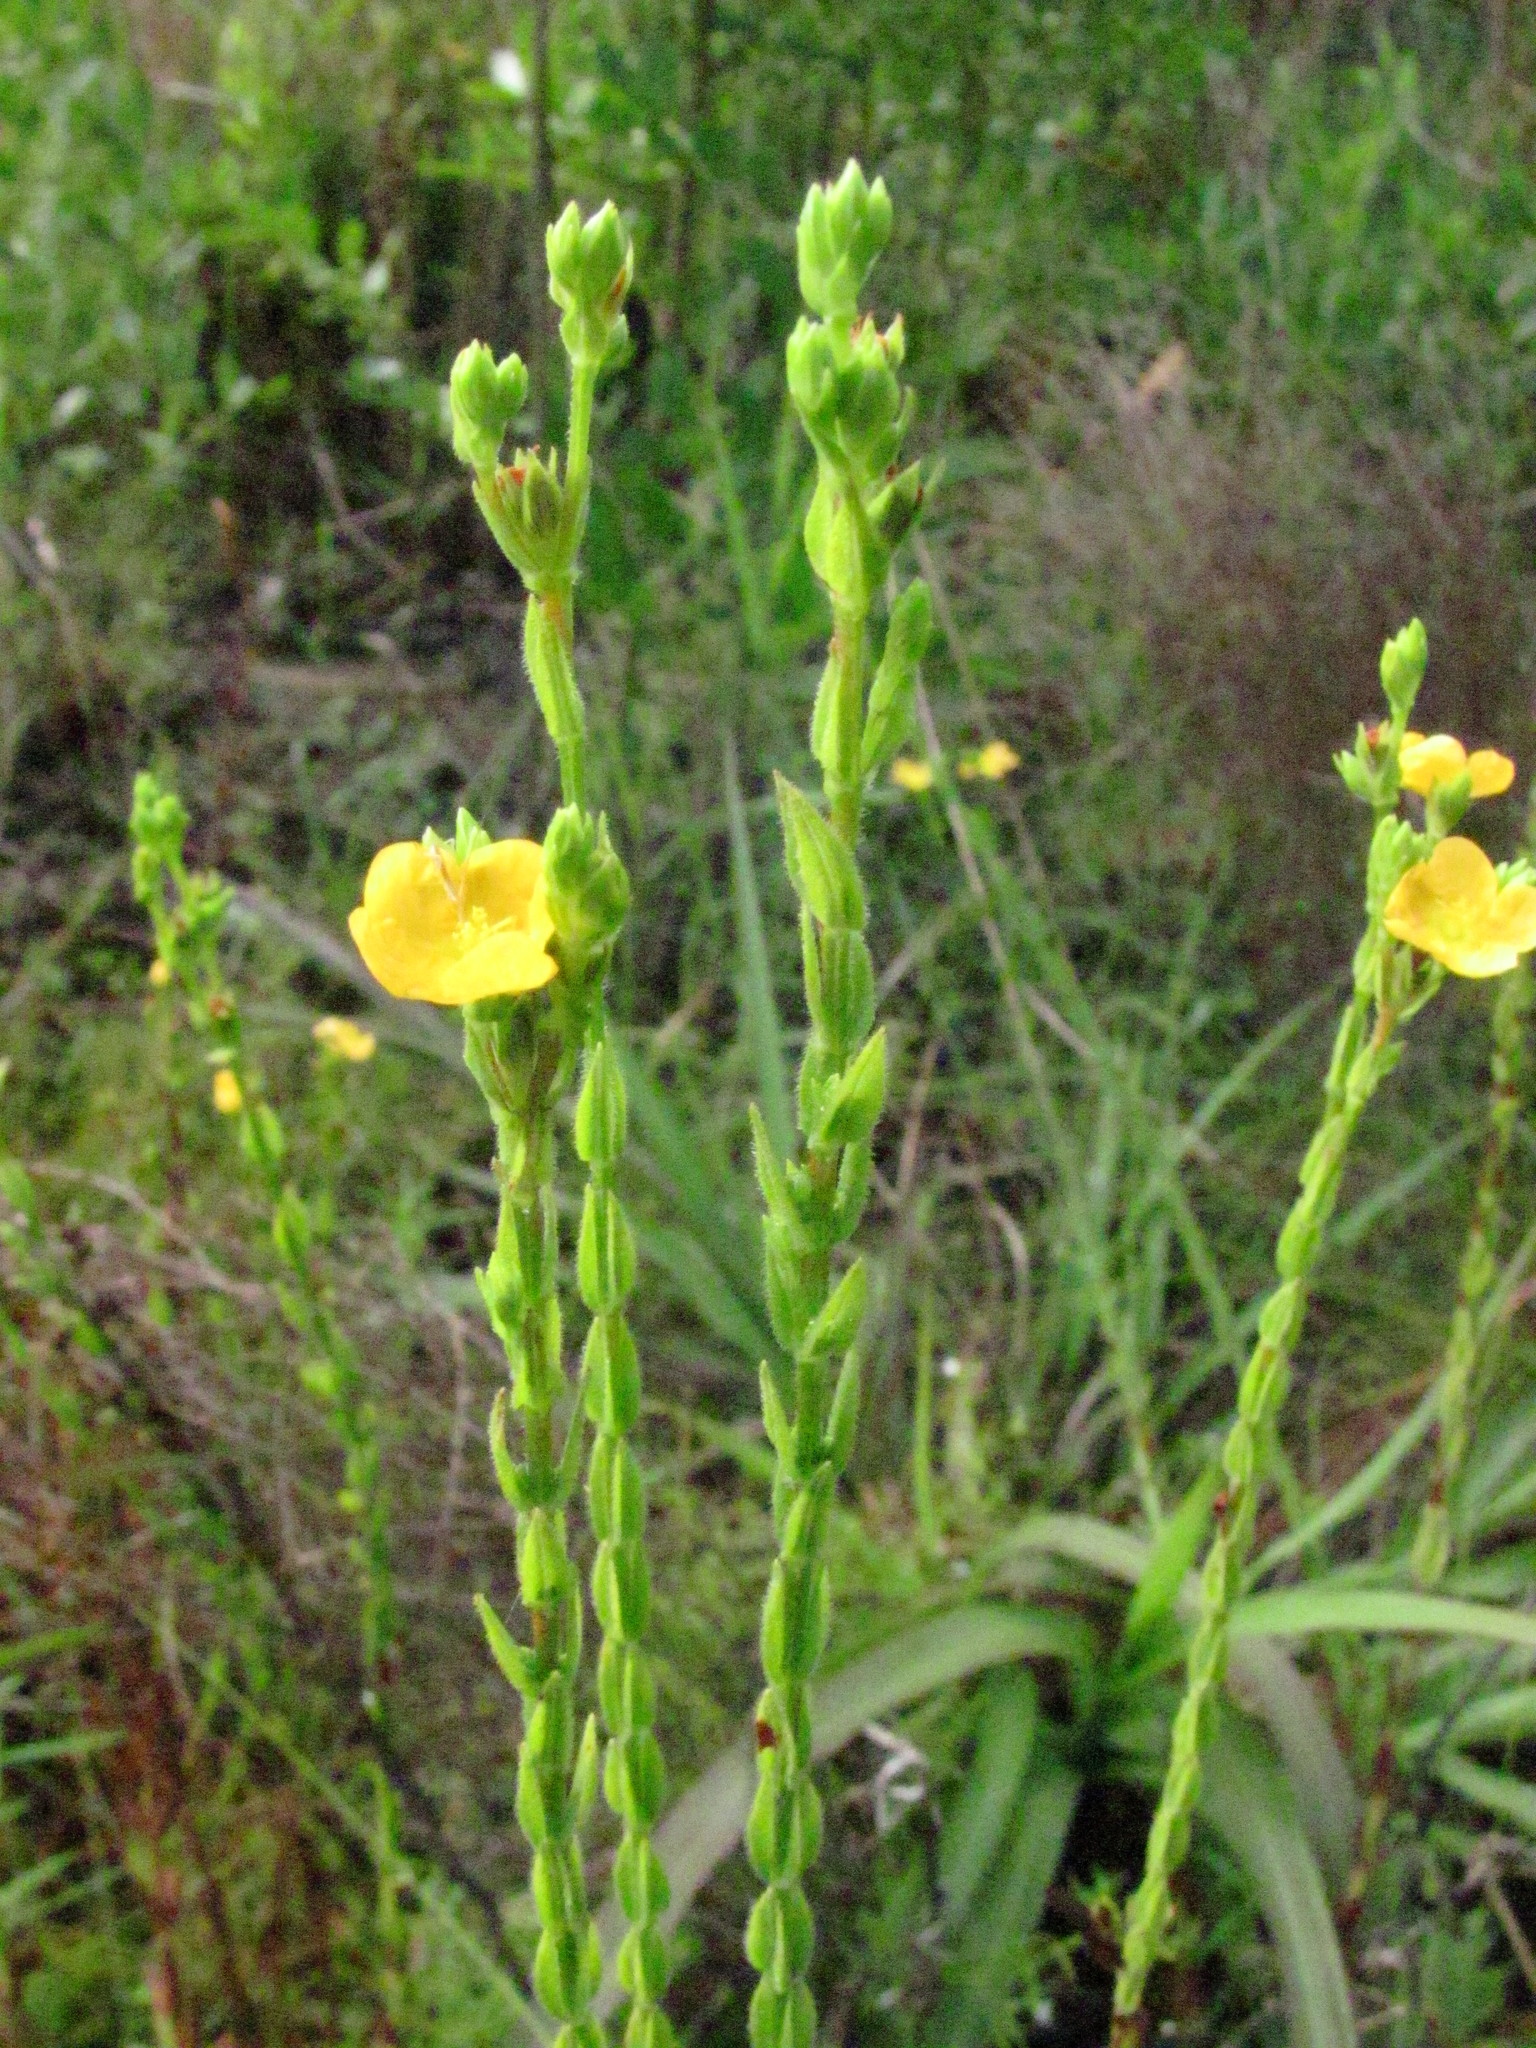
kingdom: Plantae
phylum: Tracheophyta
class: Magnoliopsida
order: Malpighiales
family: Hypericaceae
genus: Hypericum
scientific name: Hypericum setosum
